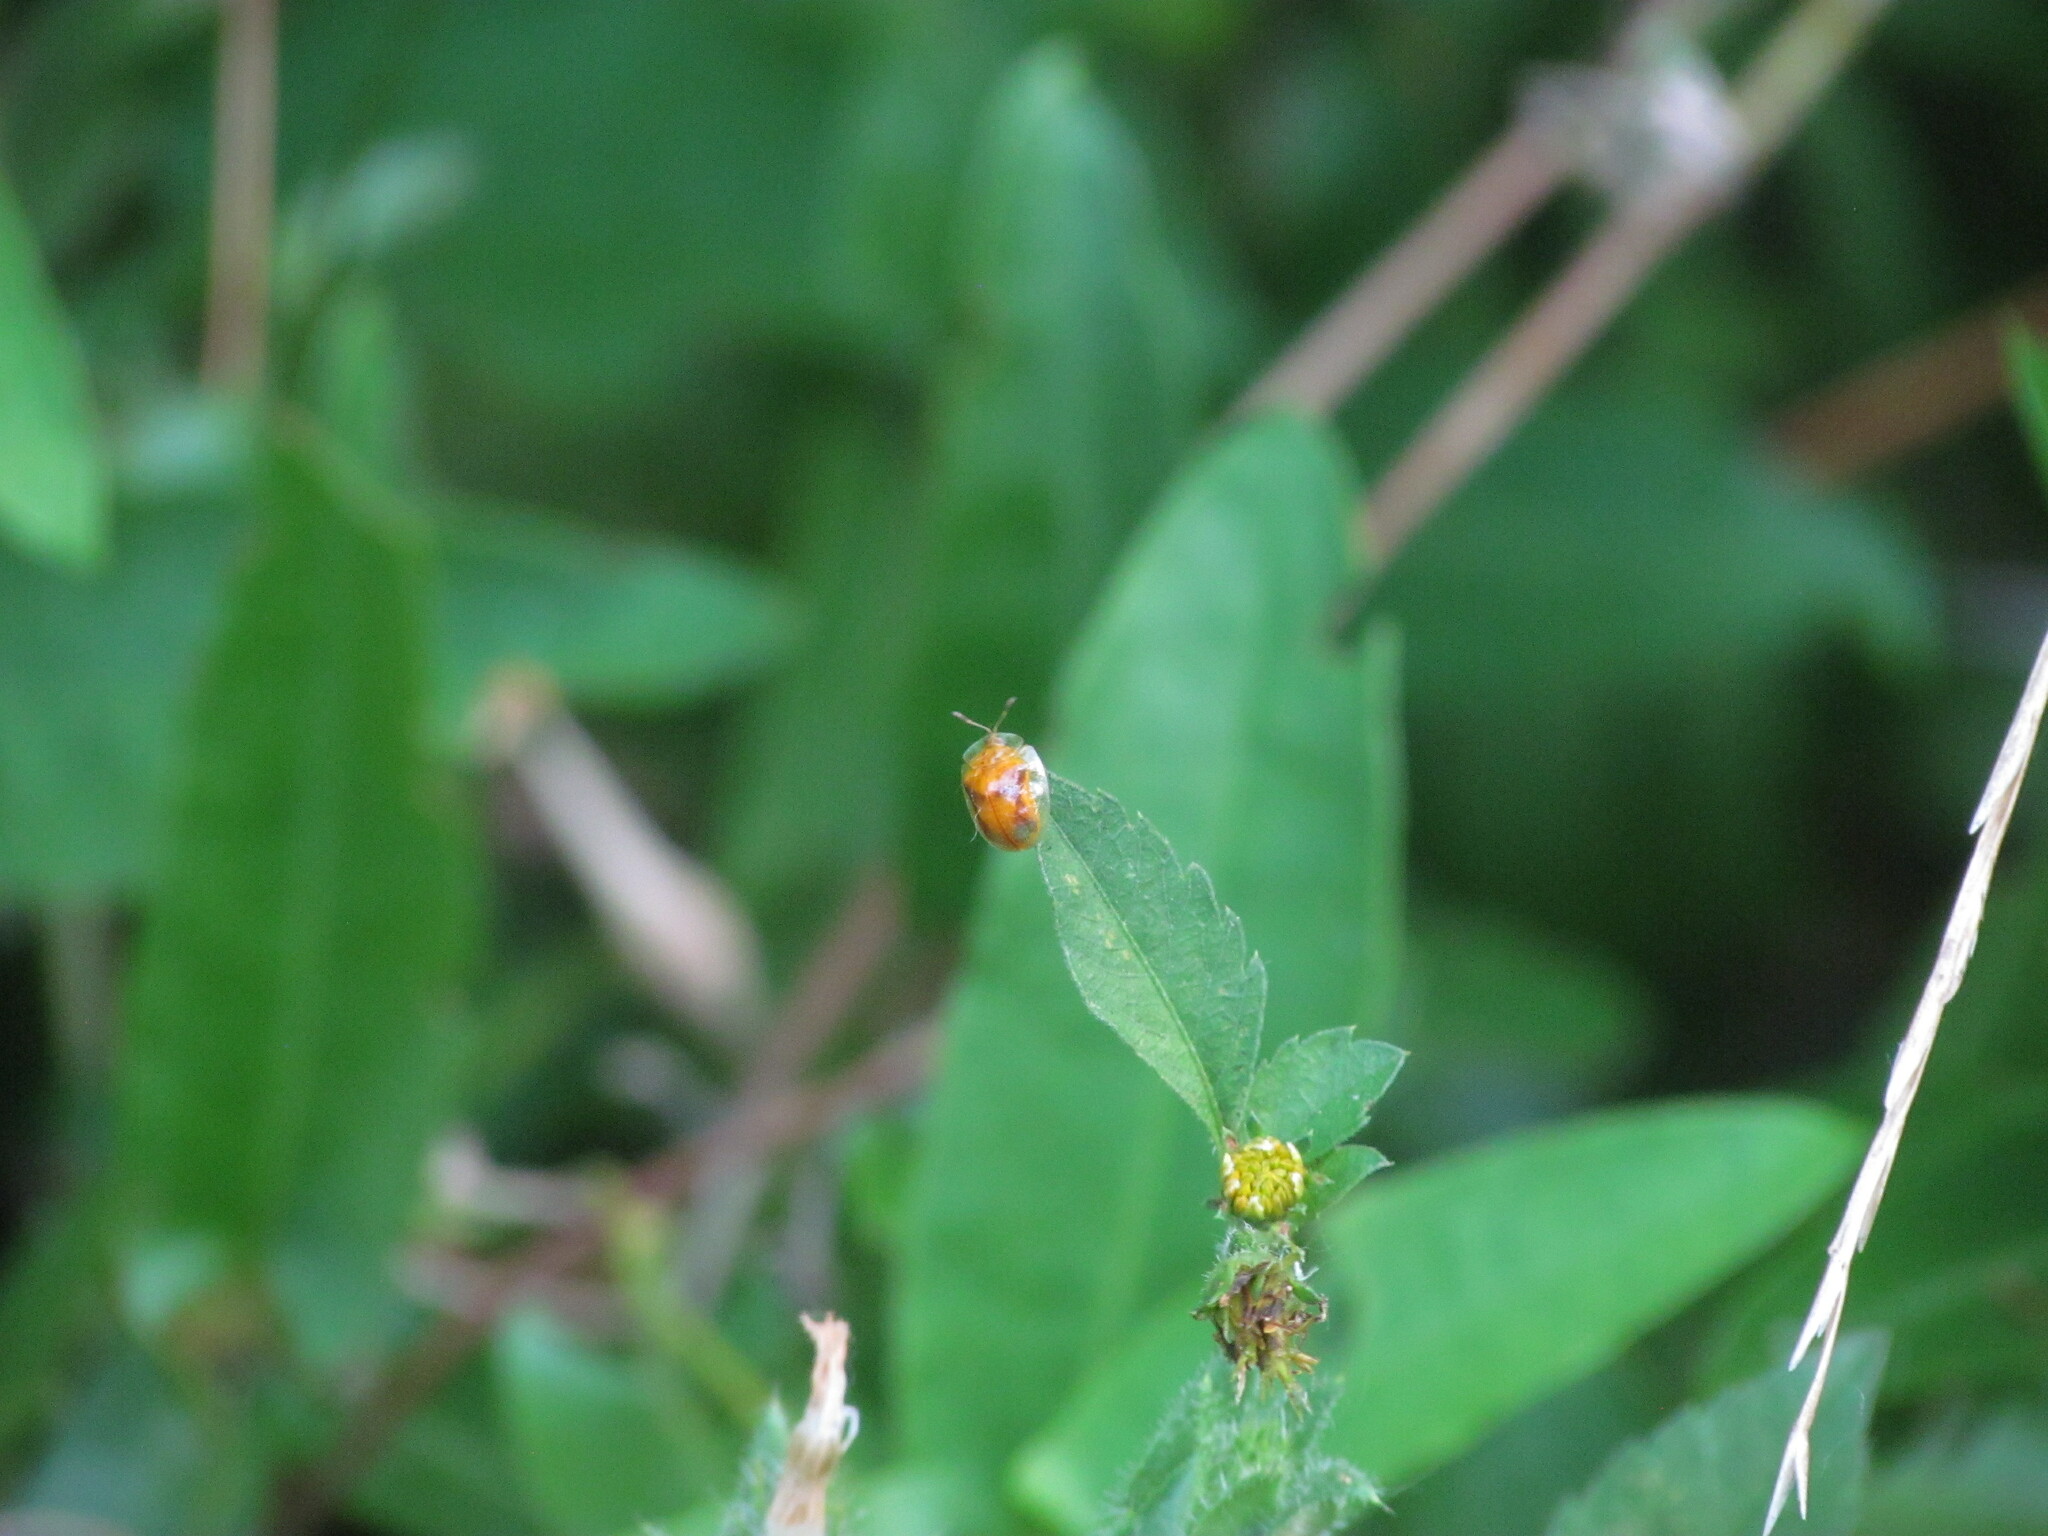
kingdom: Animalia
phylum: Arthropoda
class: Insecta
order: Coleoptera
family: Chrysomelidae
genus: Charidotella
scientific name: Charidotella sexpunctata
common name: Golden tortoise beetle
